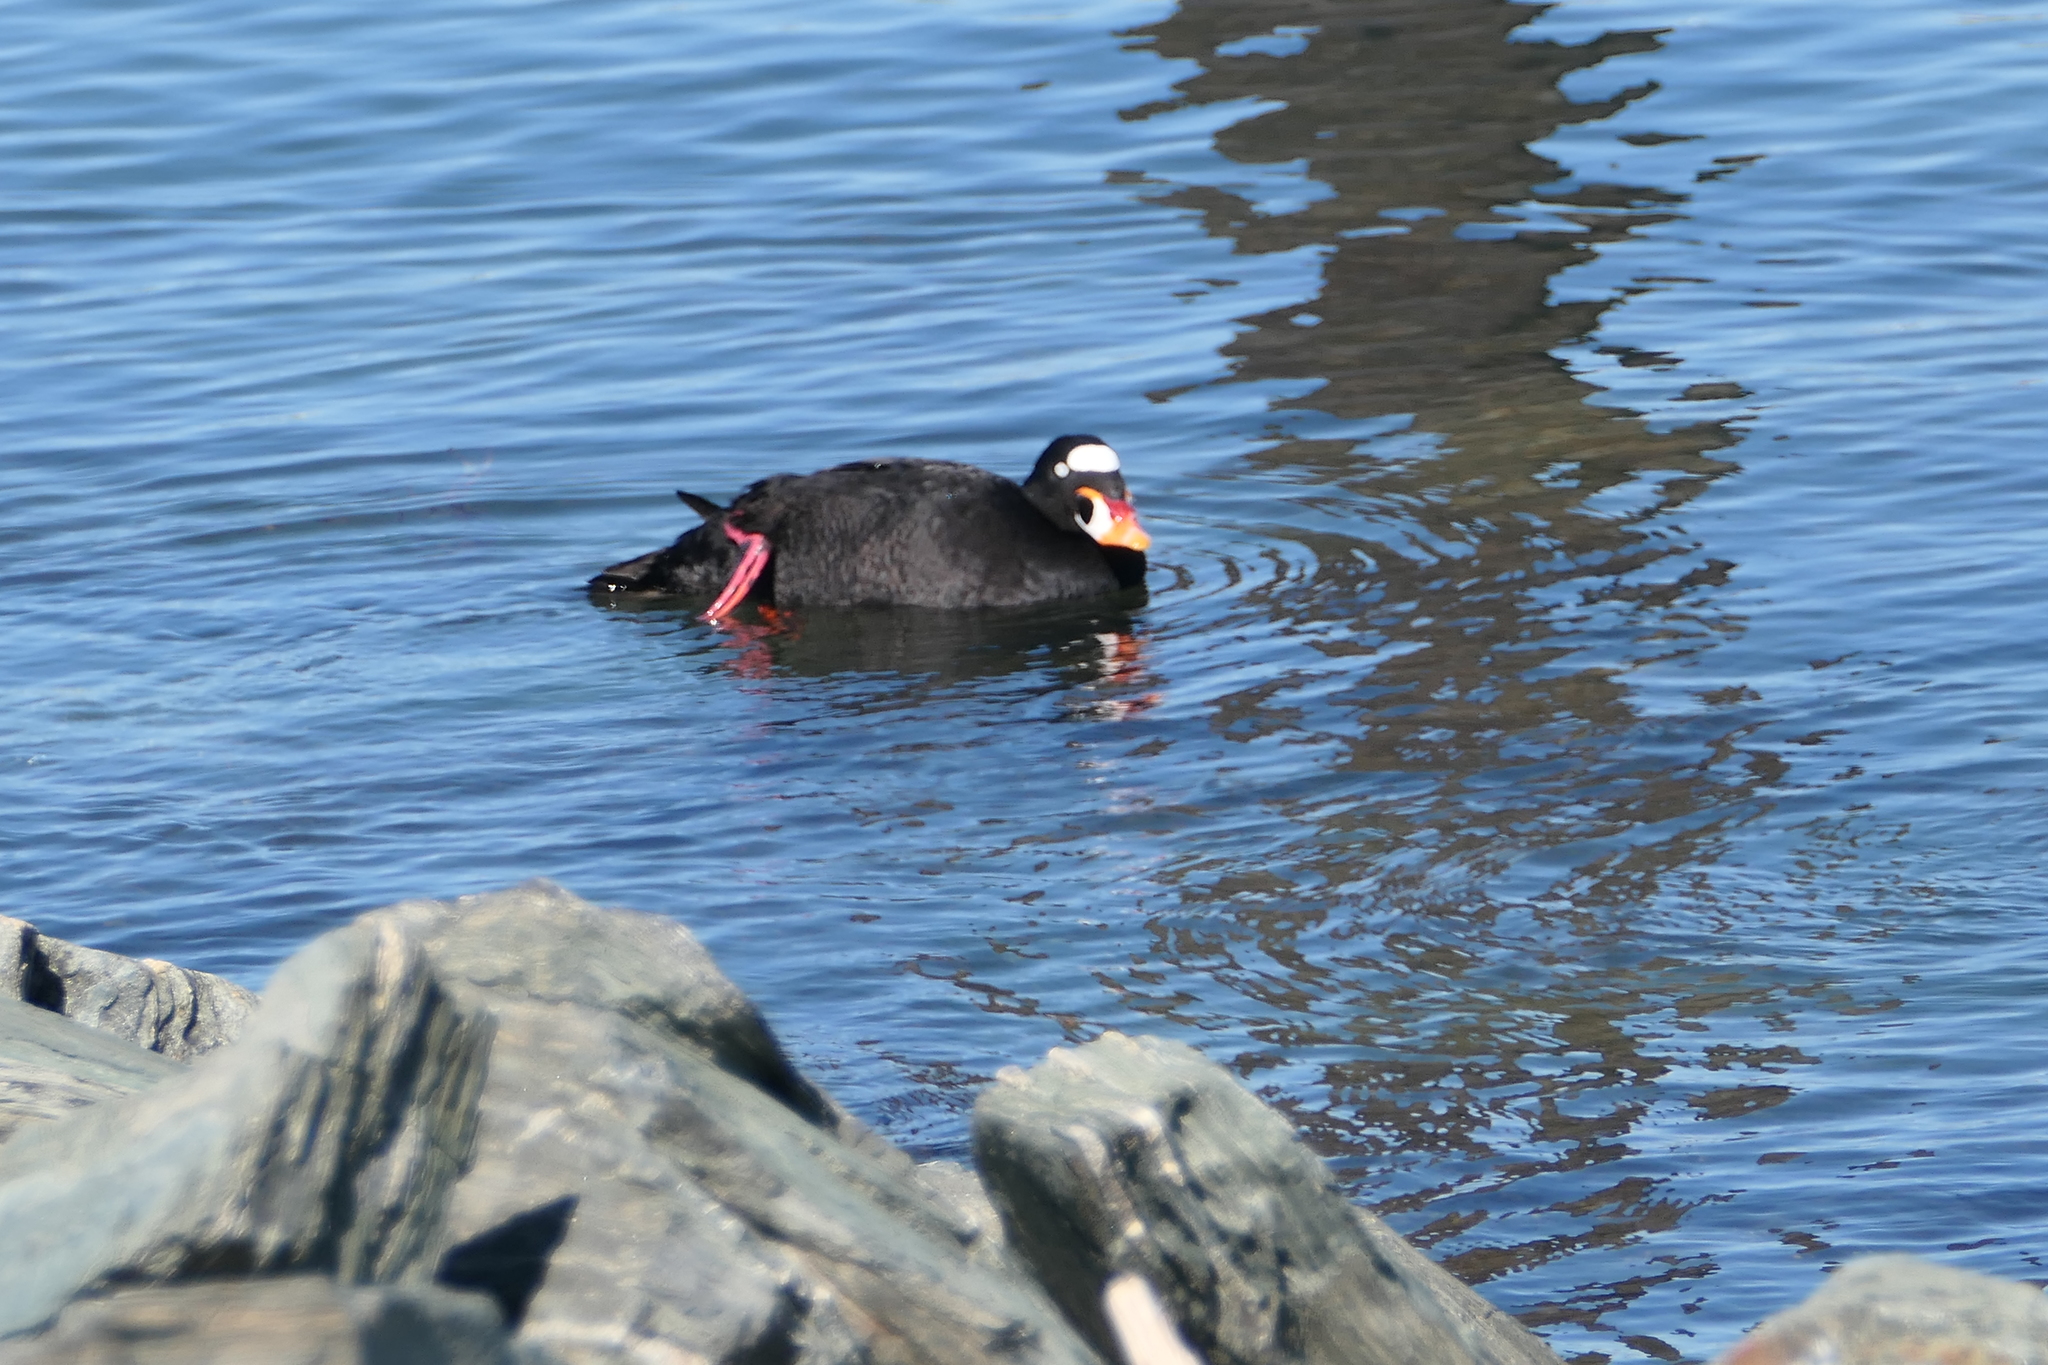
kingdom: Animalia
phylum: Chordata
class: Aves
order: Anseriformes
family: Anatidae
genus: Melanitta
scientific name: Melanitta perspicillata
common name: Surf scoter
